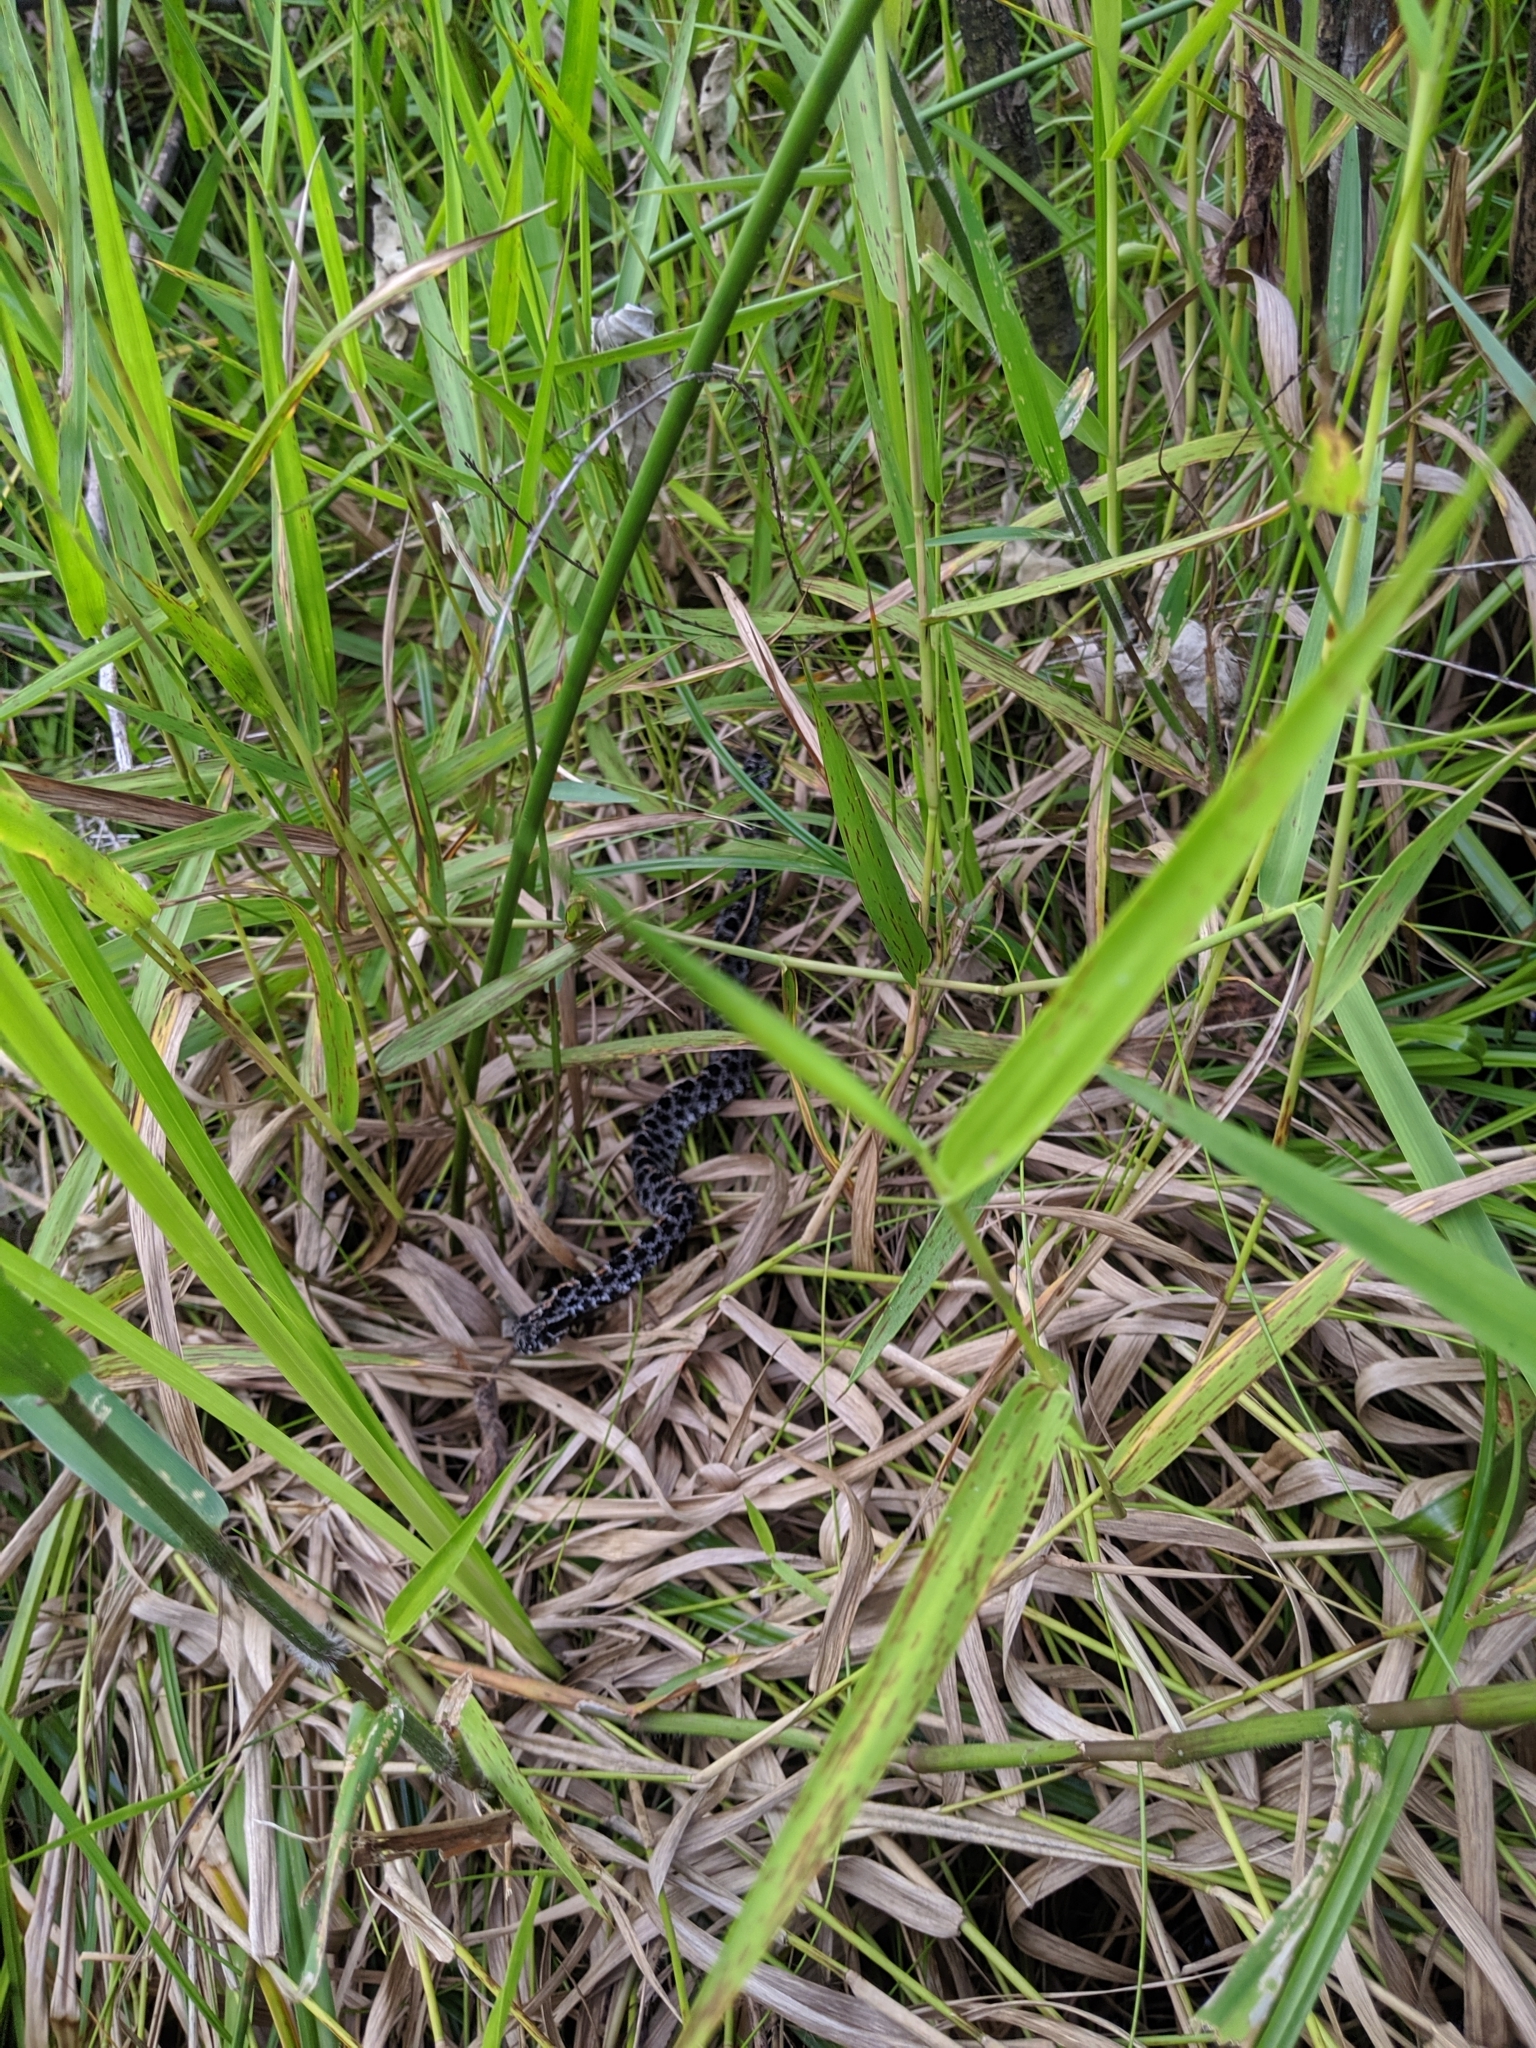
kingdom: Animalia
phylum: Chordata
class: Squamata
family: Viperidae
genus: Sistrurus
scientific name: Sistrurus miliarius
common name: Pygmy rattlesnake
